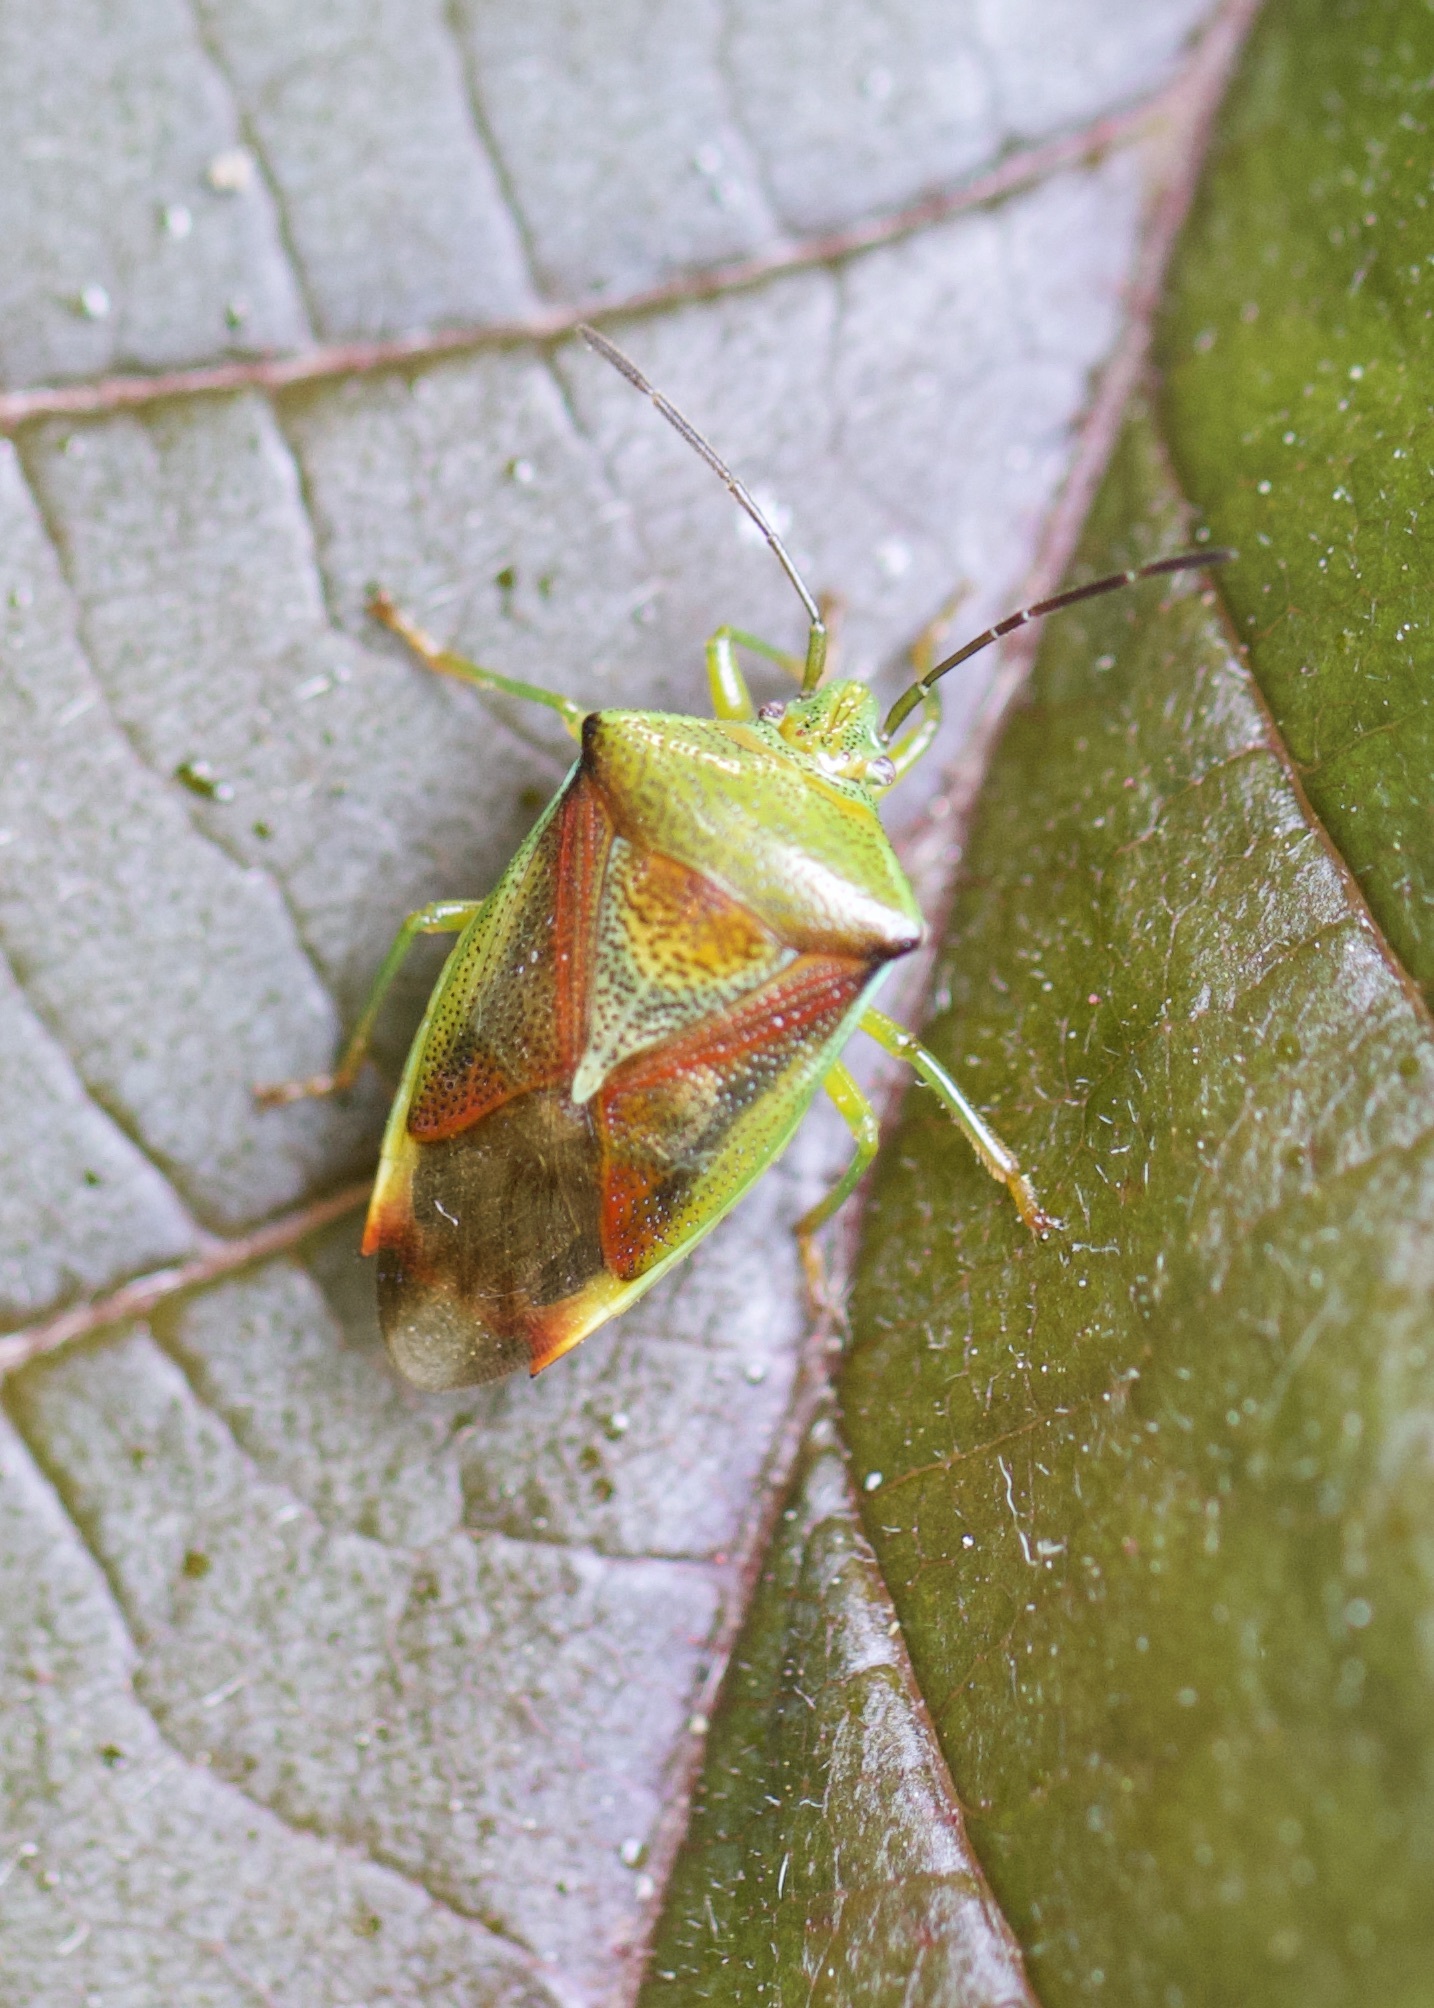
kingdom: Animalia
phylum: Arthropoda
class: Insecta
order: Hemiptera
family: Acanthosomatidae
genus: Elasmostethus
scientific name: Elasmostethus interstinctus
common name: Birch shieldbug
